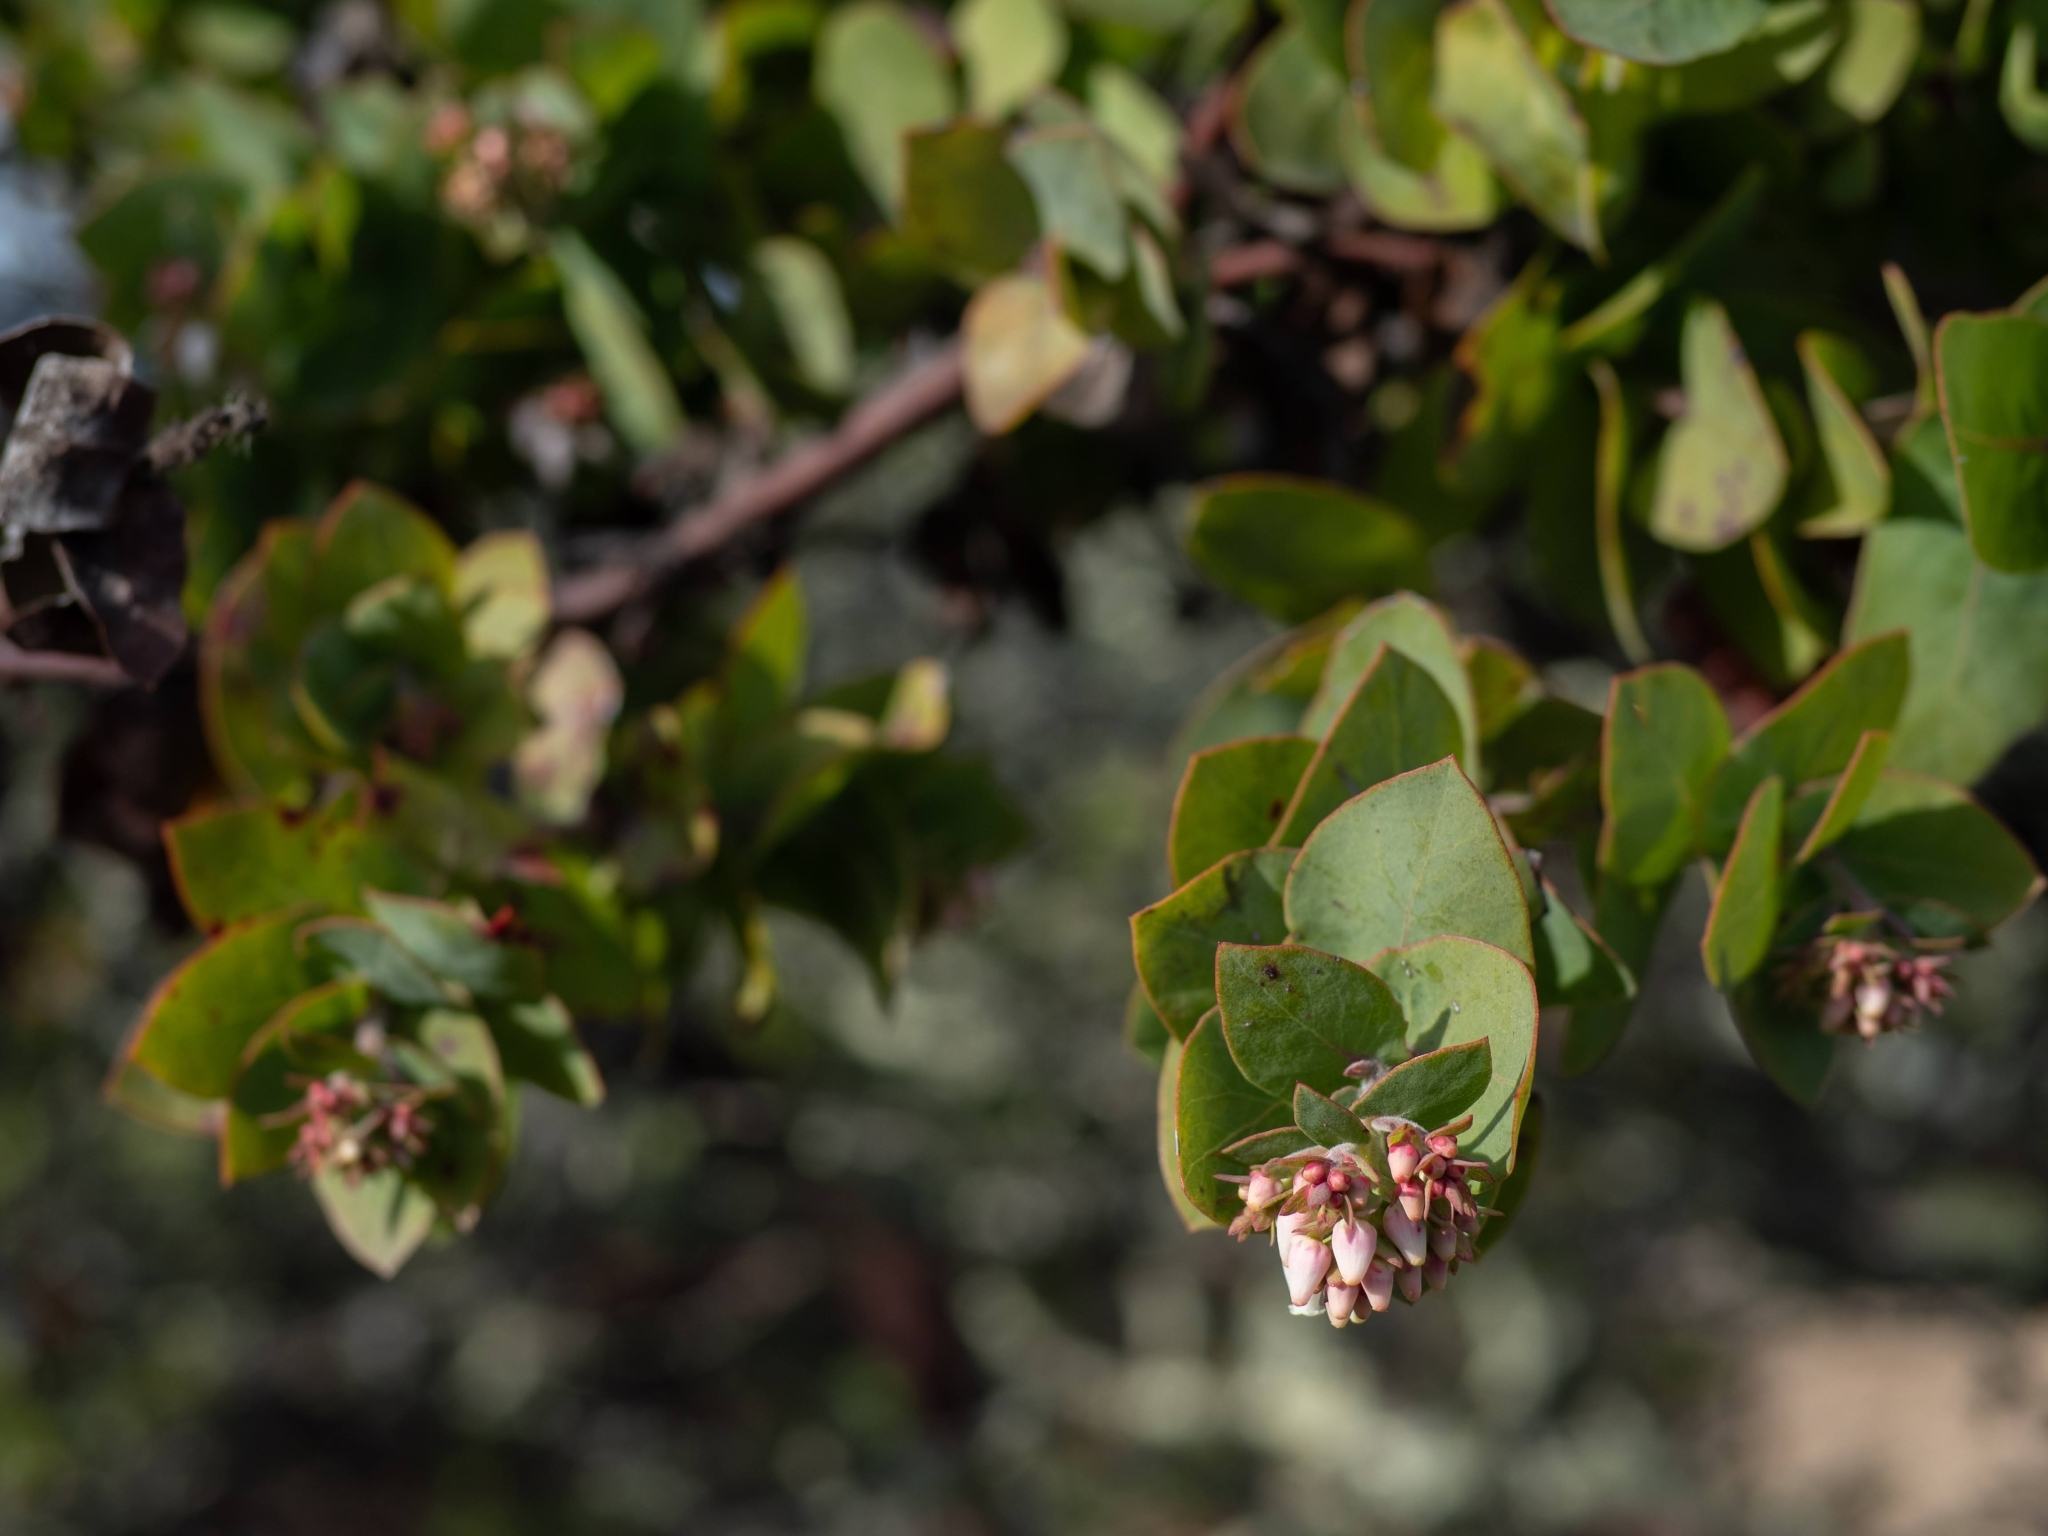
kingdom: Plantae
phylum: Tracheophyta
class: Magnoliopsida
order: Ericales
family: Ericaceae
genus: Arctostaphylos
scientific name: Arctostaphylos pallida
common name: Pallid manzanita
